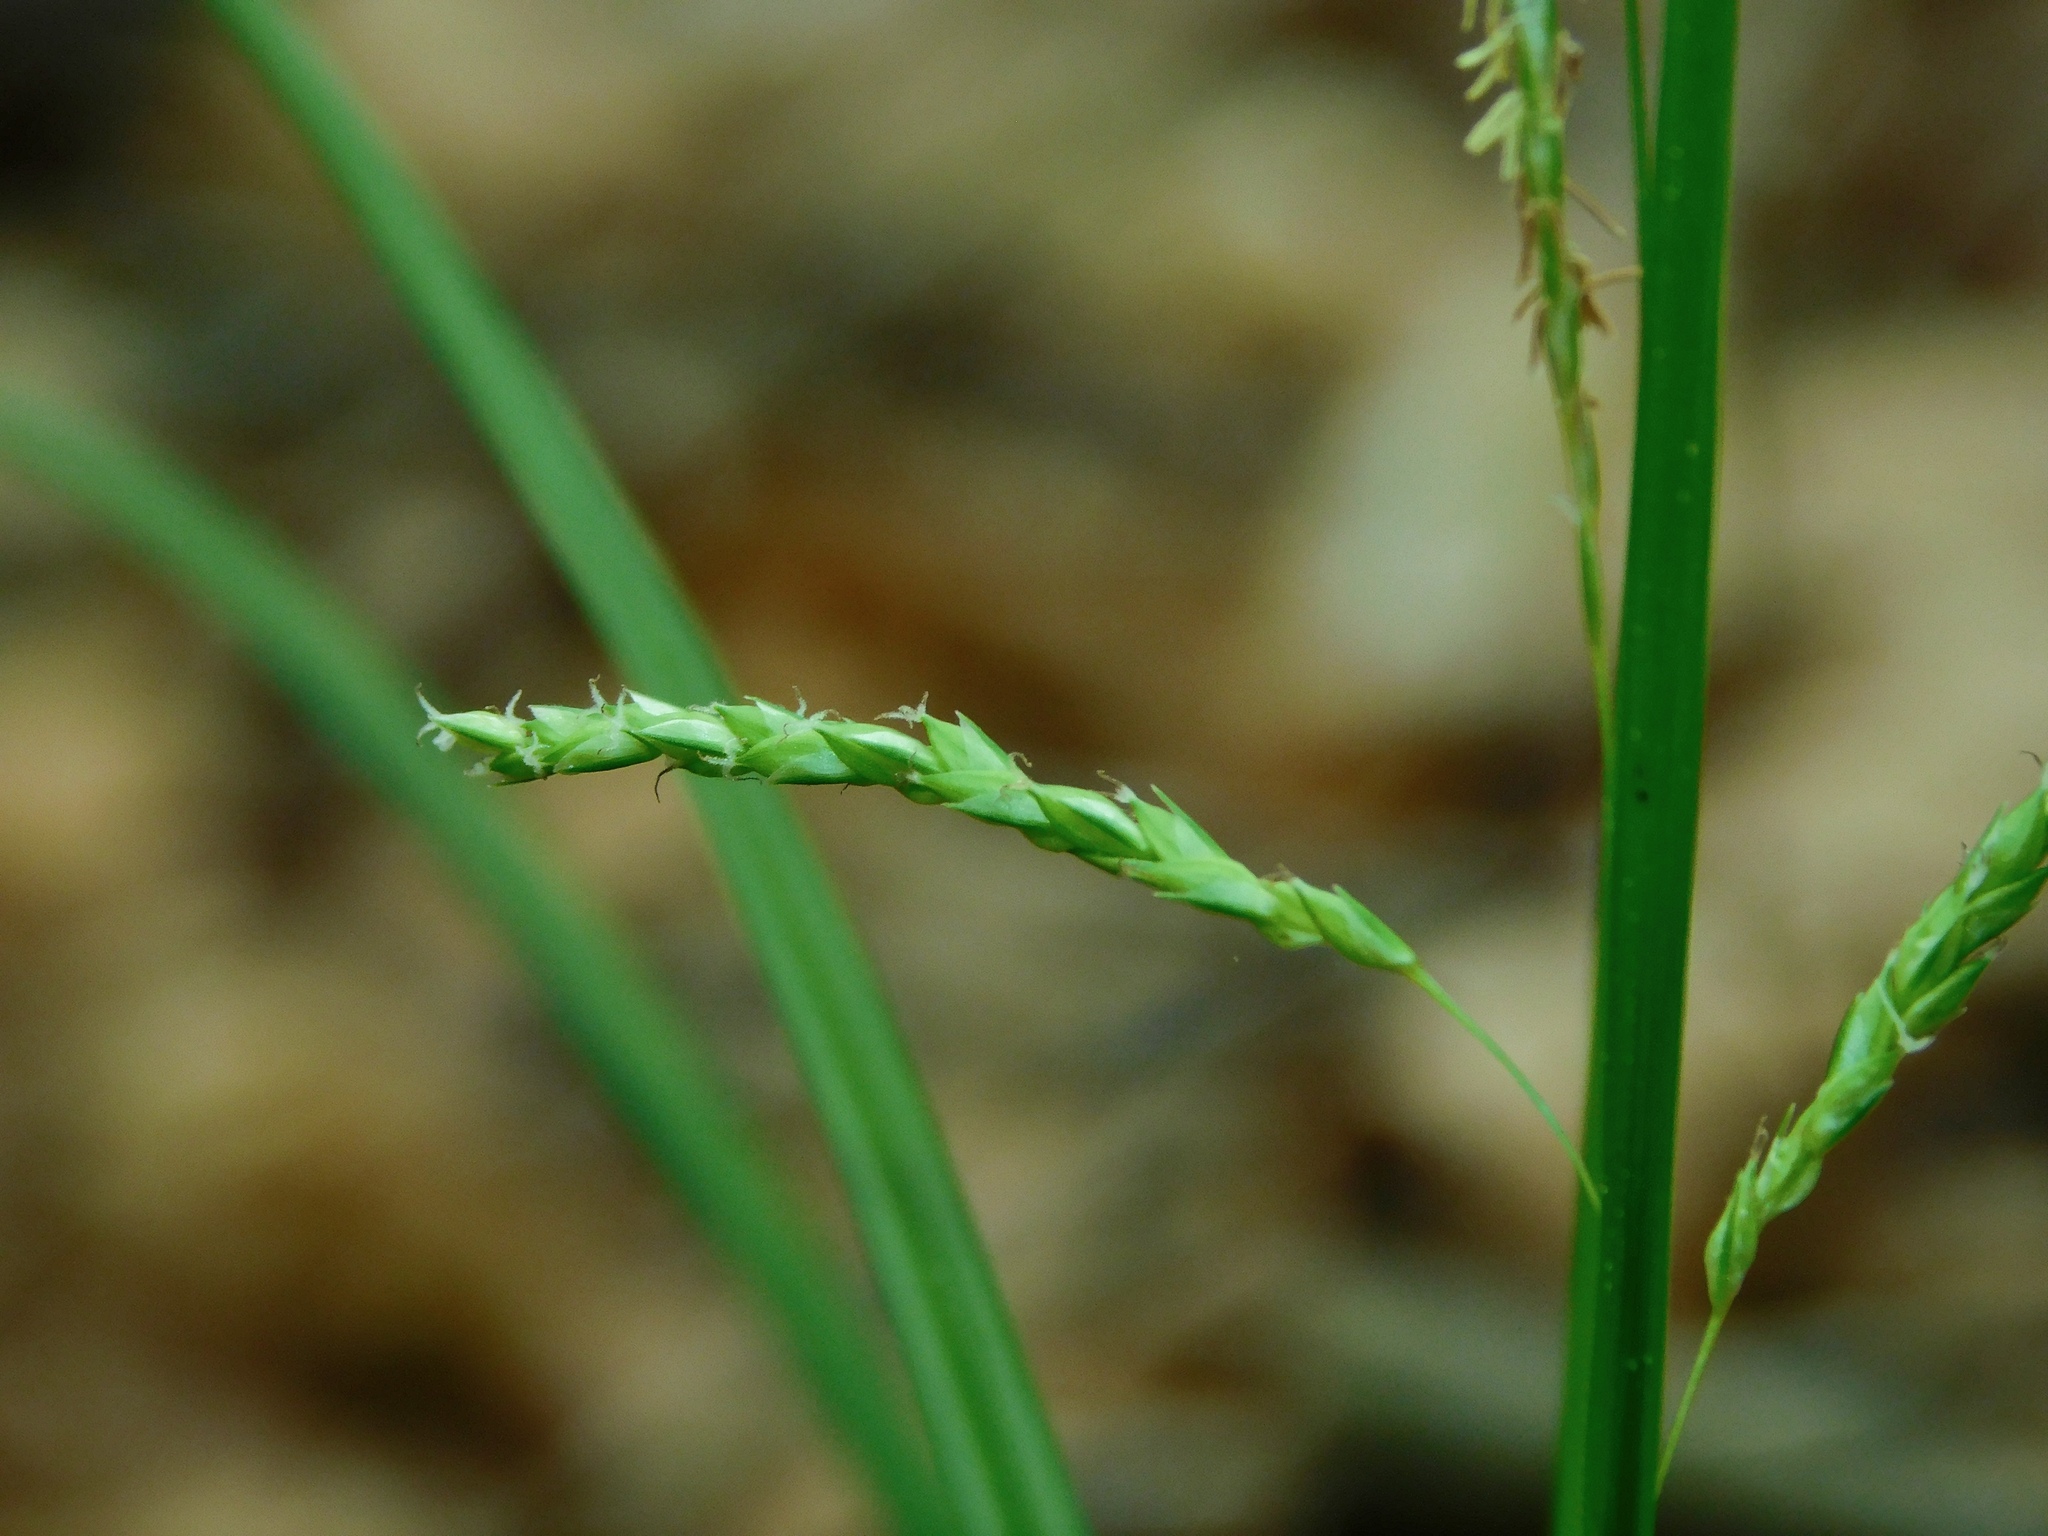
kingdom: Plantae
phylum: Tracheophyta
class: Liliopsida
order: Poales
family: Cyperaceae
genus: Carex
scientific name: Carex oxylepis
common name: Sharpscale sedge
